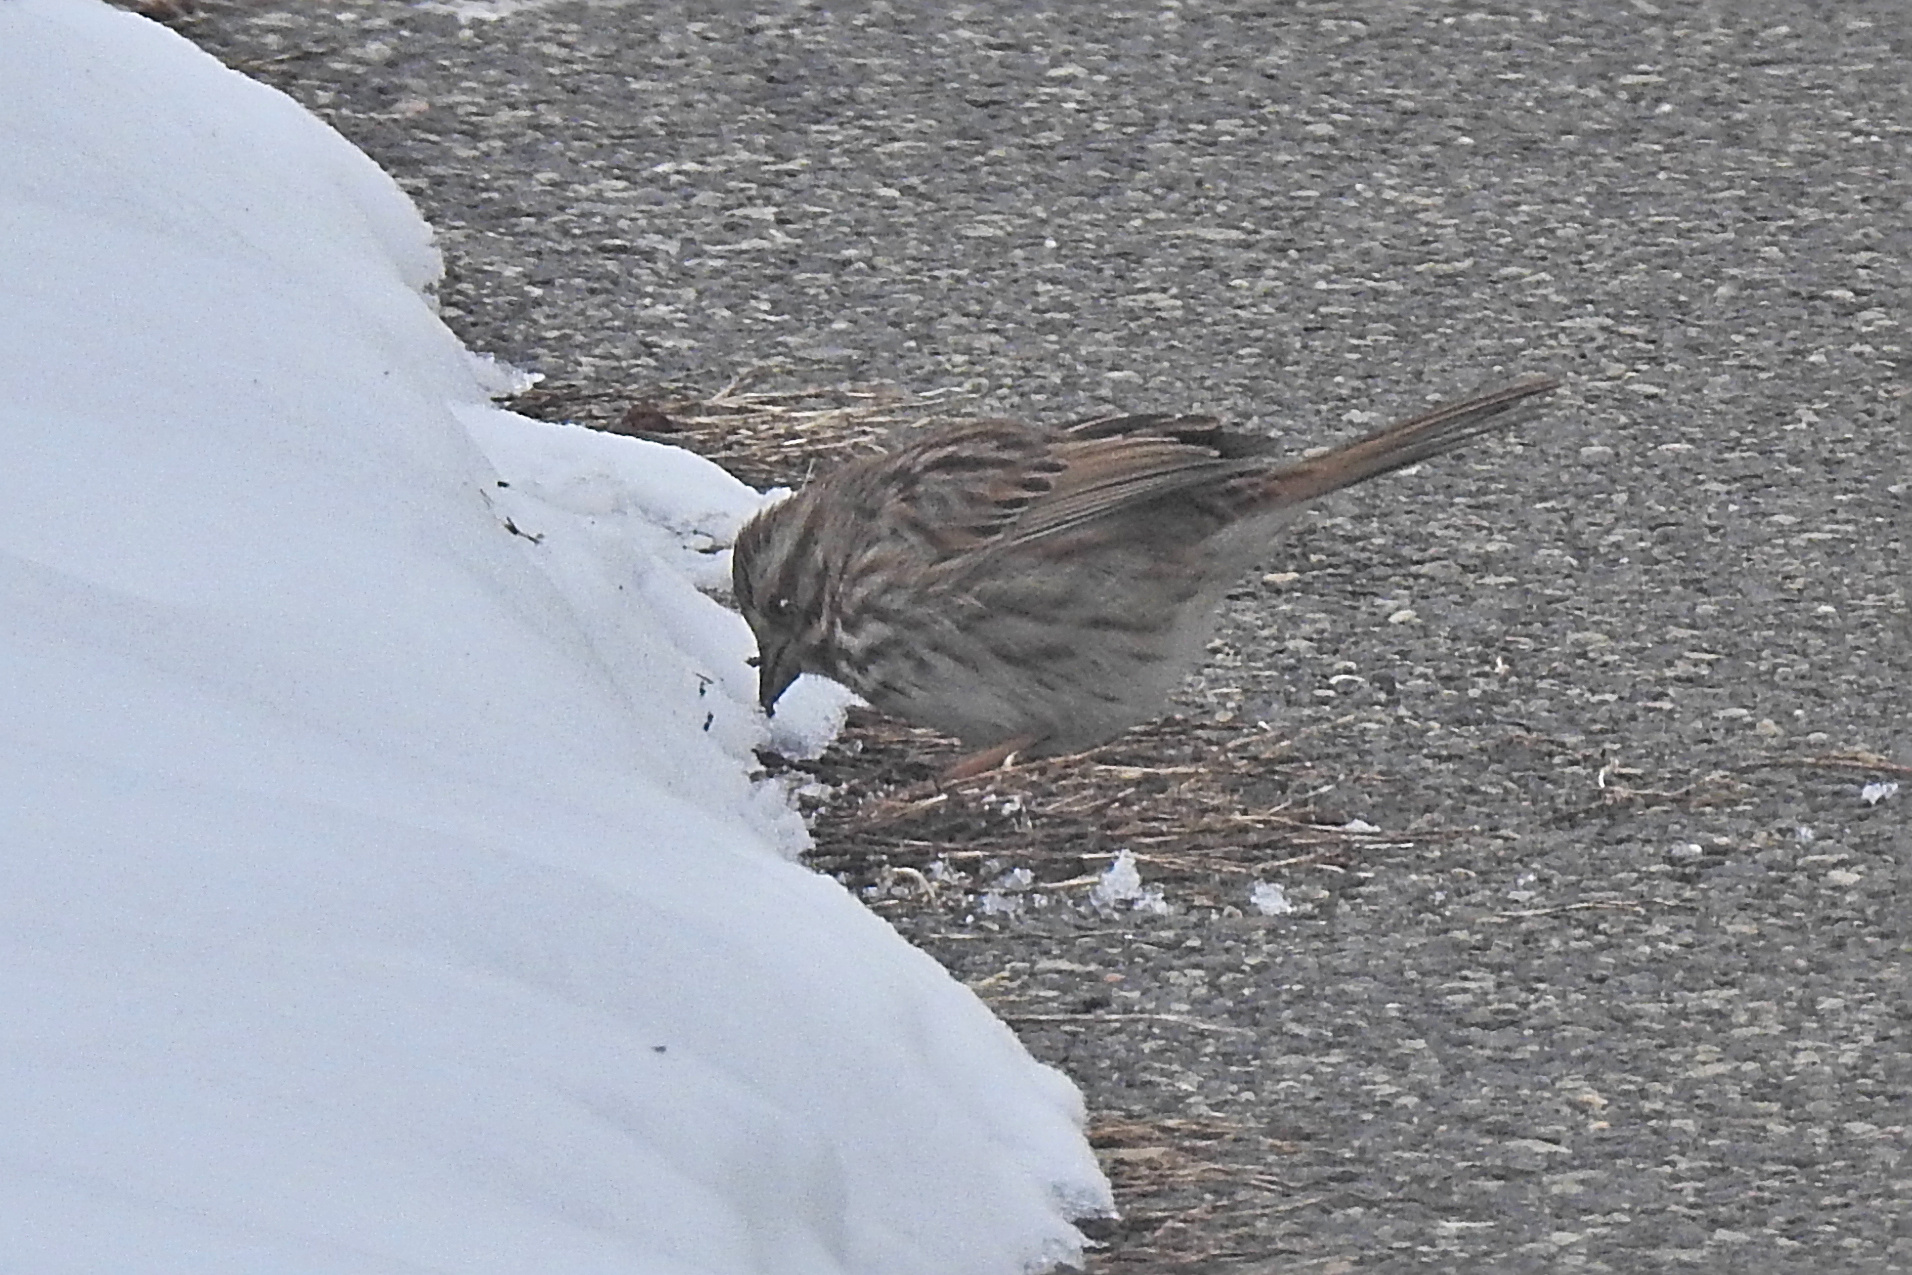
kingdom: Animalia
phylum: Chordata
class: Aves
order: Passeriformes
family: Passerellidae
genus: Melospiza
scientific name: Melospiza melodia
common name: Song sparrow
